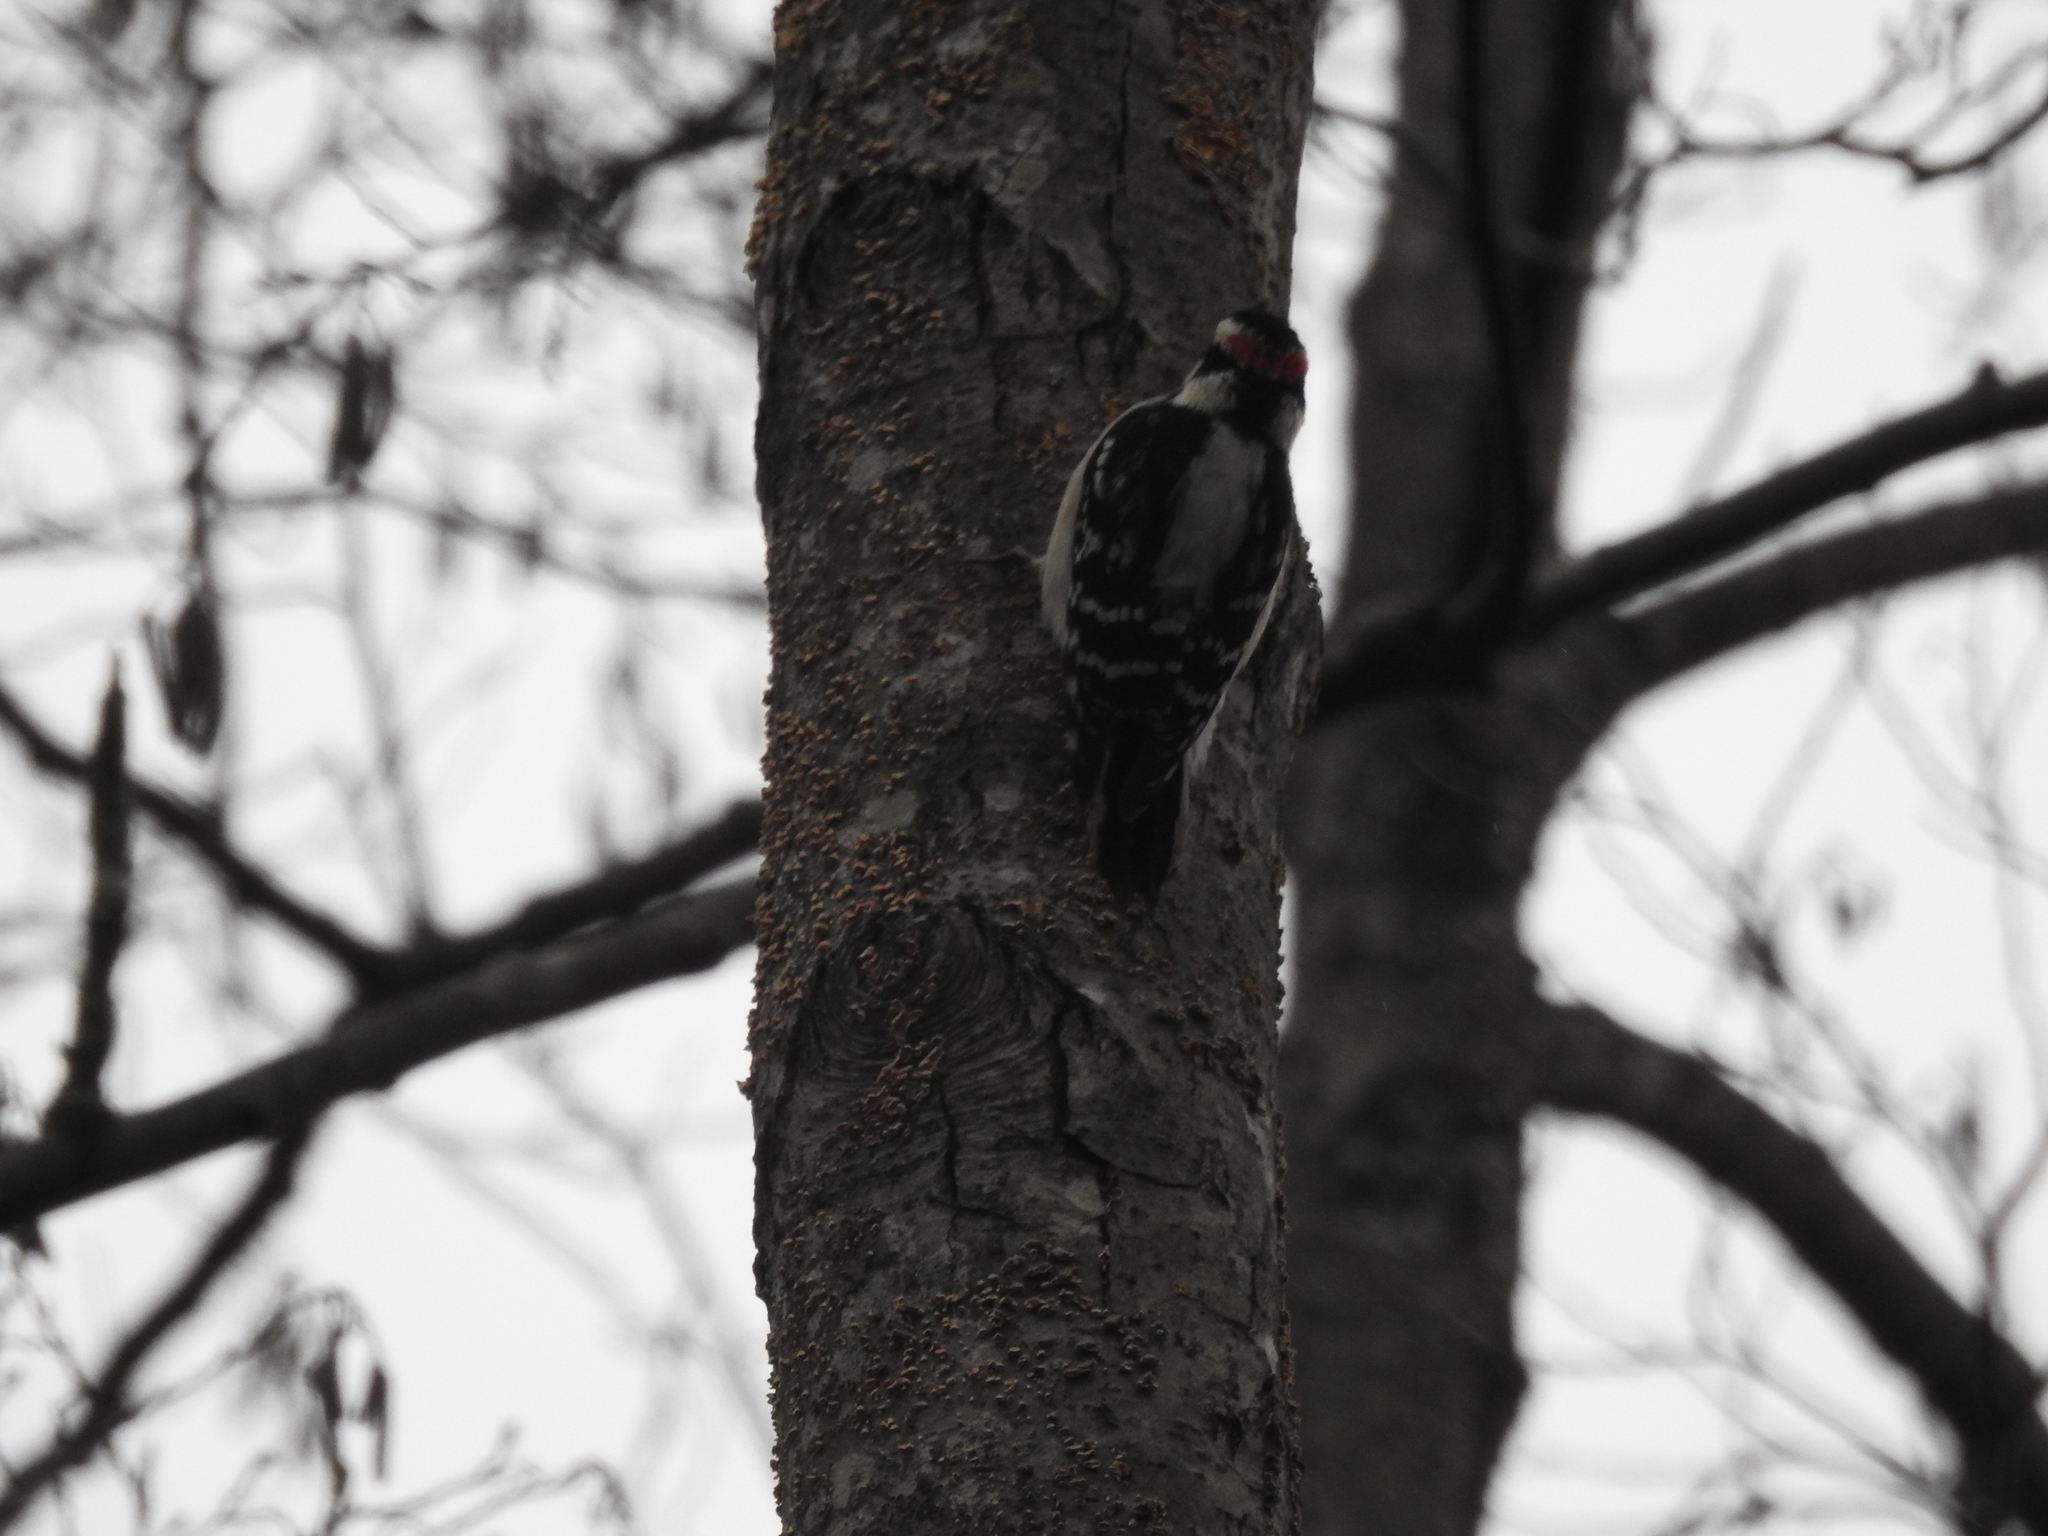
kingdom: Animalia
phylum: Chordata
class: Aves
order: Piciformes
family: Picidae
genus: Dryobates
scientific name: Dryobates pubescens
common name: Downy woodpecker
